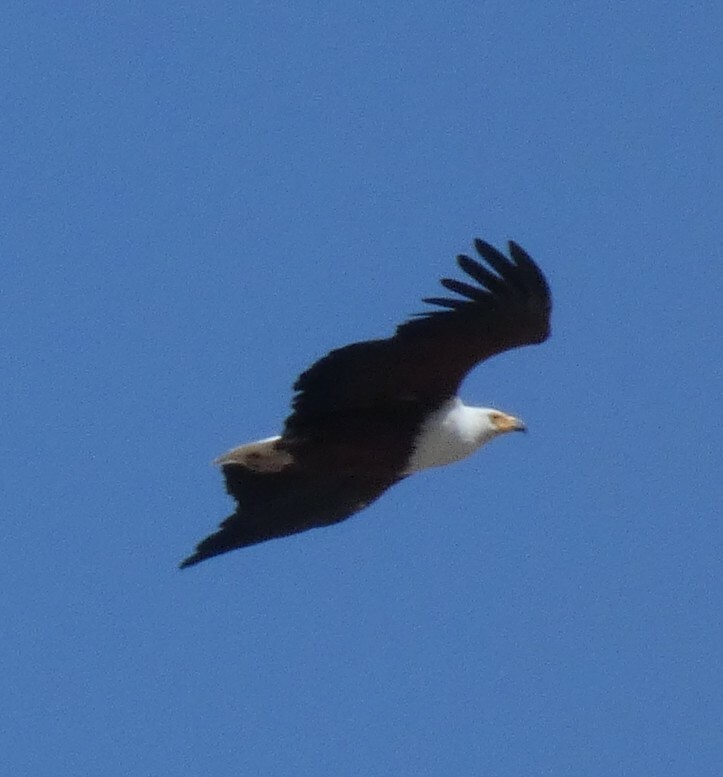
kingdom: Animalia
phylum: Chordata
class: Aves
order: Accipitriformes
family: Accipitridae
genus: Haliaeetus
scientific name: Haliaeetus vocifer
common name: African fish eagle
